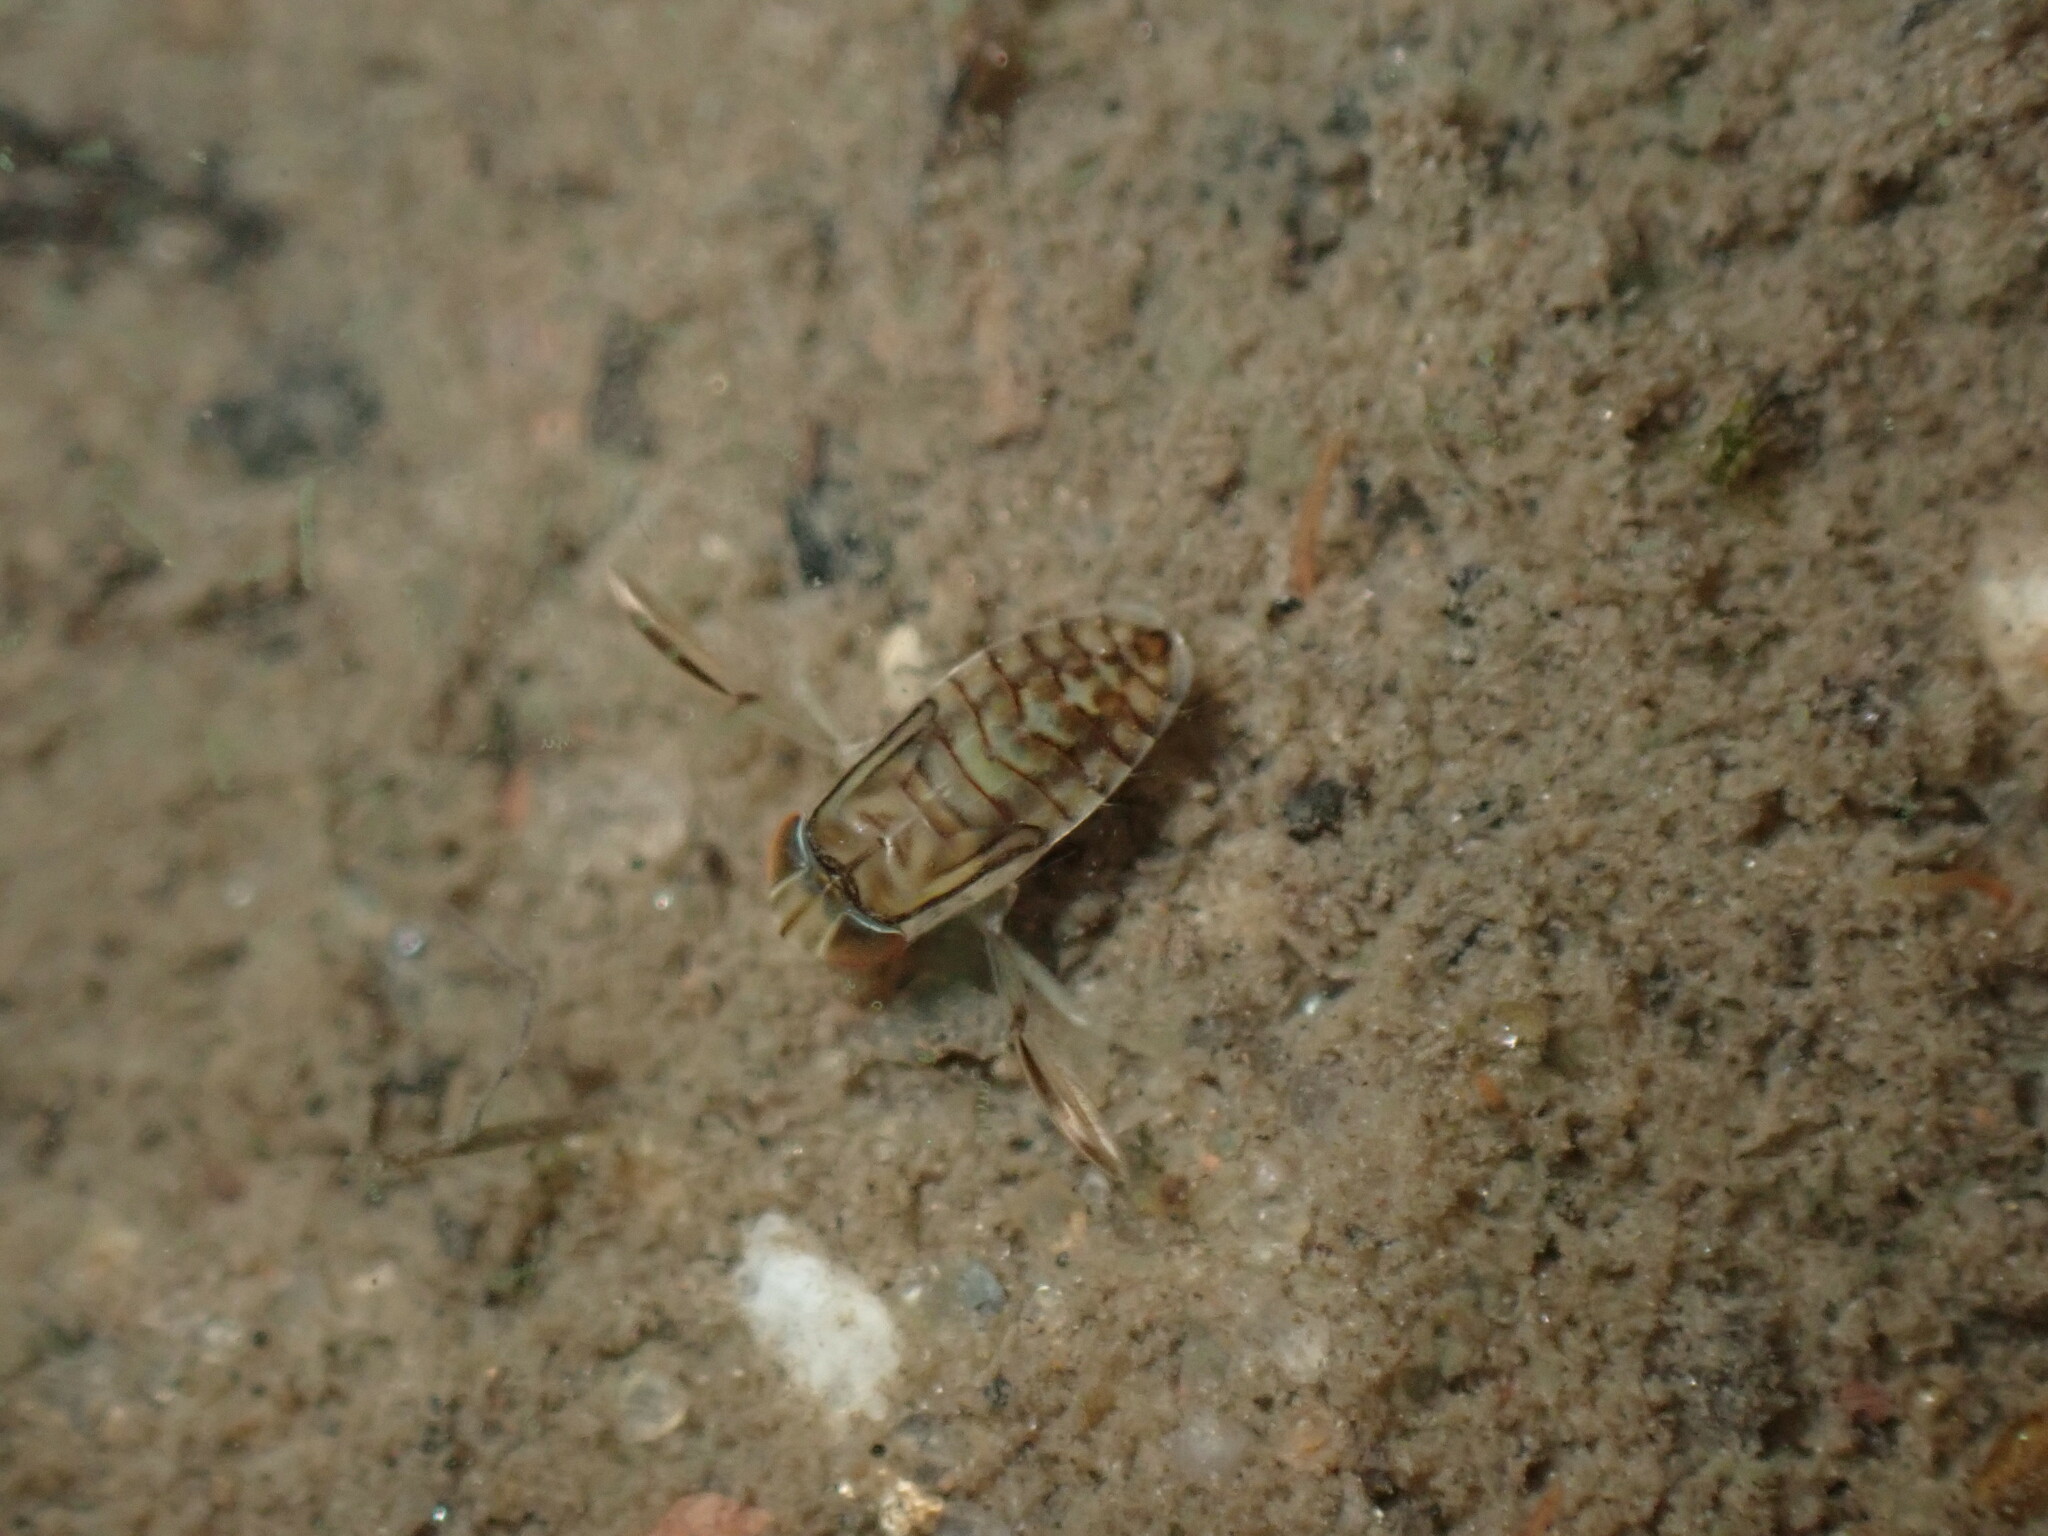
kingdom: Animalia
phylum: Arthropoda
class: Insecta
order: Hemiptera
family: Corixidae
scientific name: Corixidae
